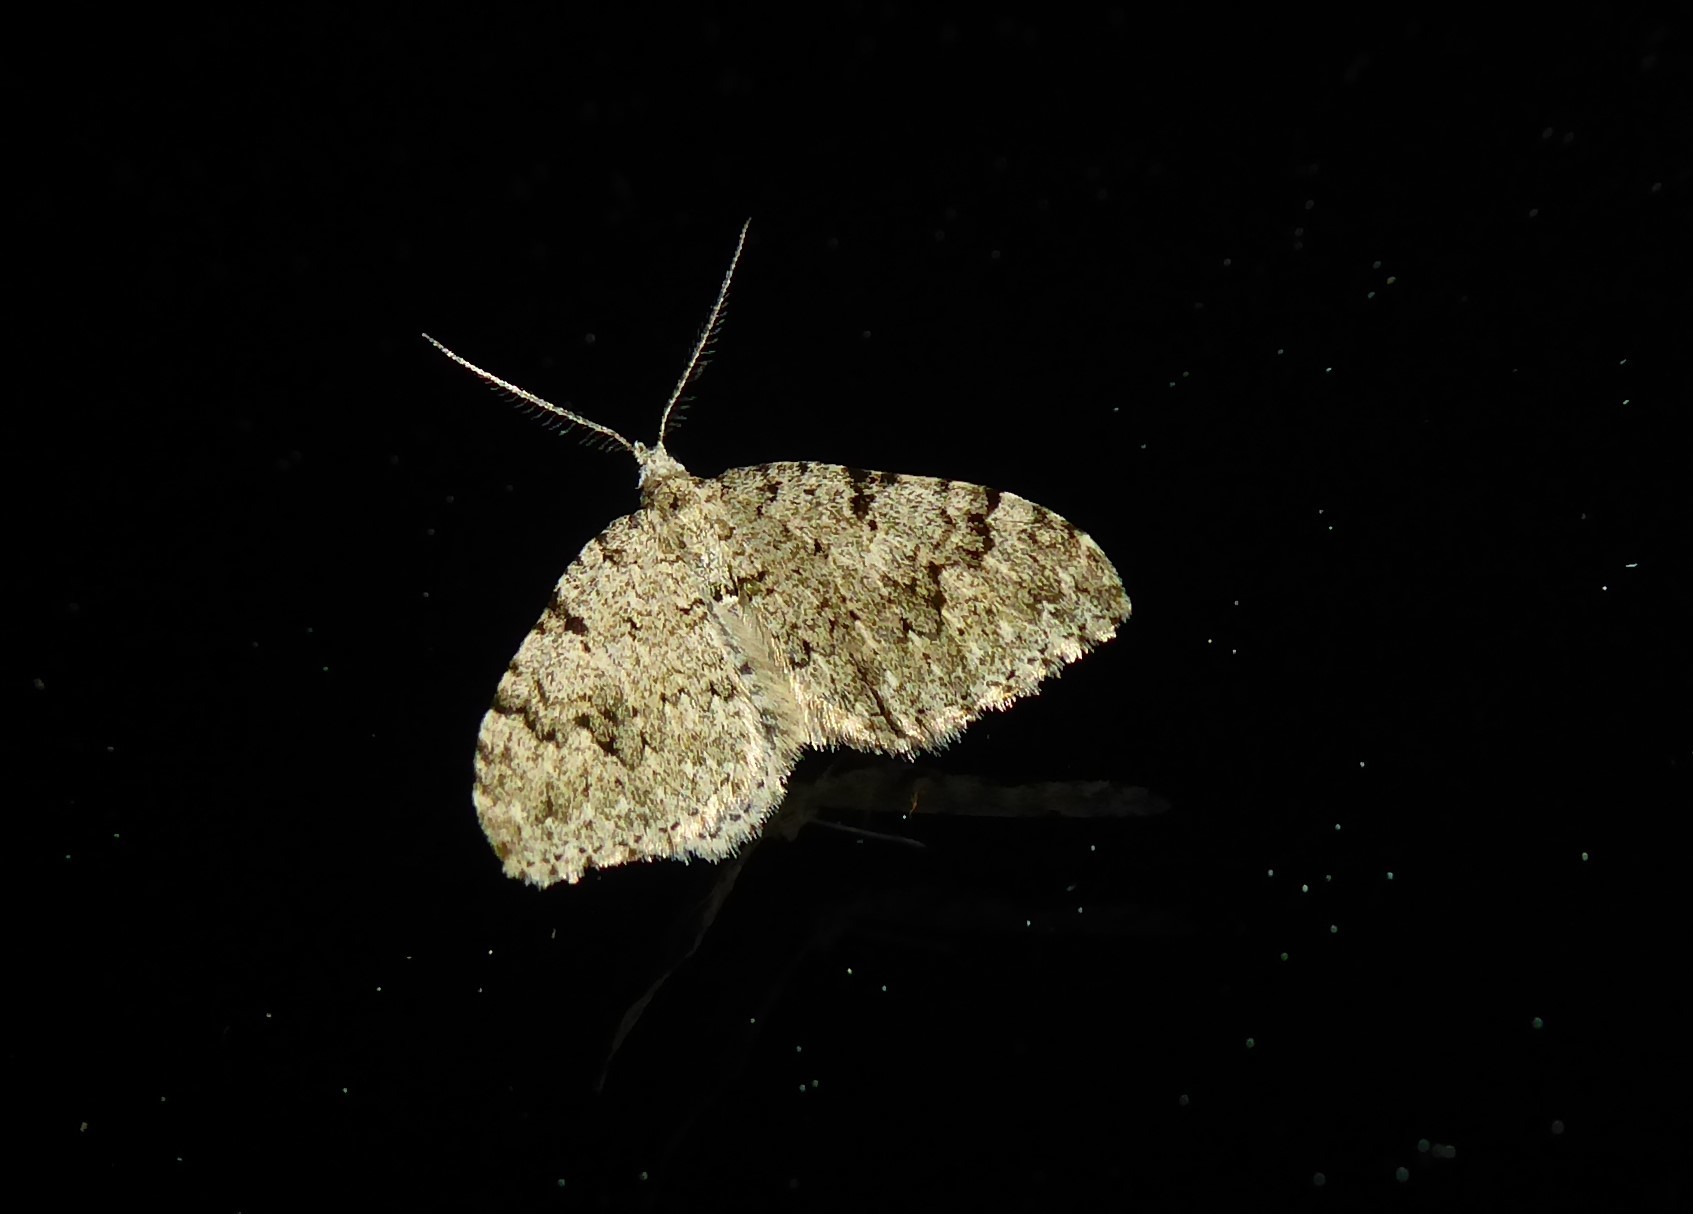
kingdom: Animalia
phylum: Arthropoda
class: Insecta
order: Lepidoptera
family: Geometridae
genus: Helastia
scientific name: Helastia cinerearia
